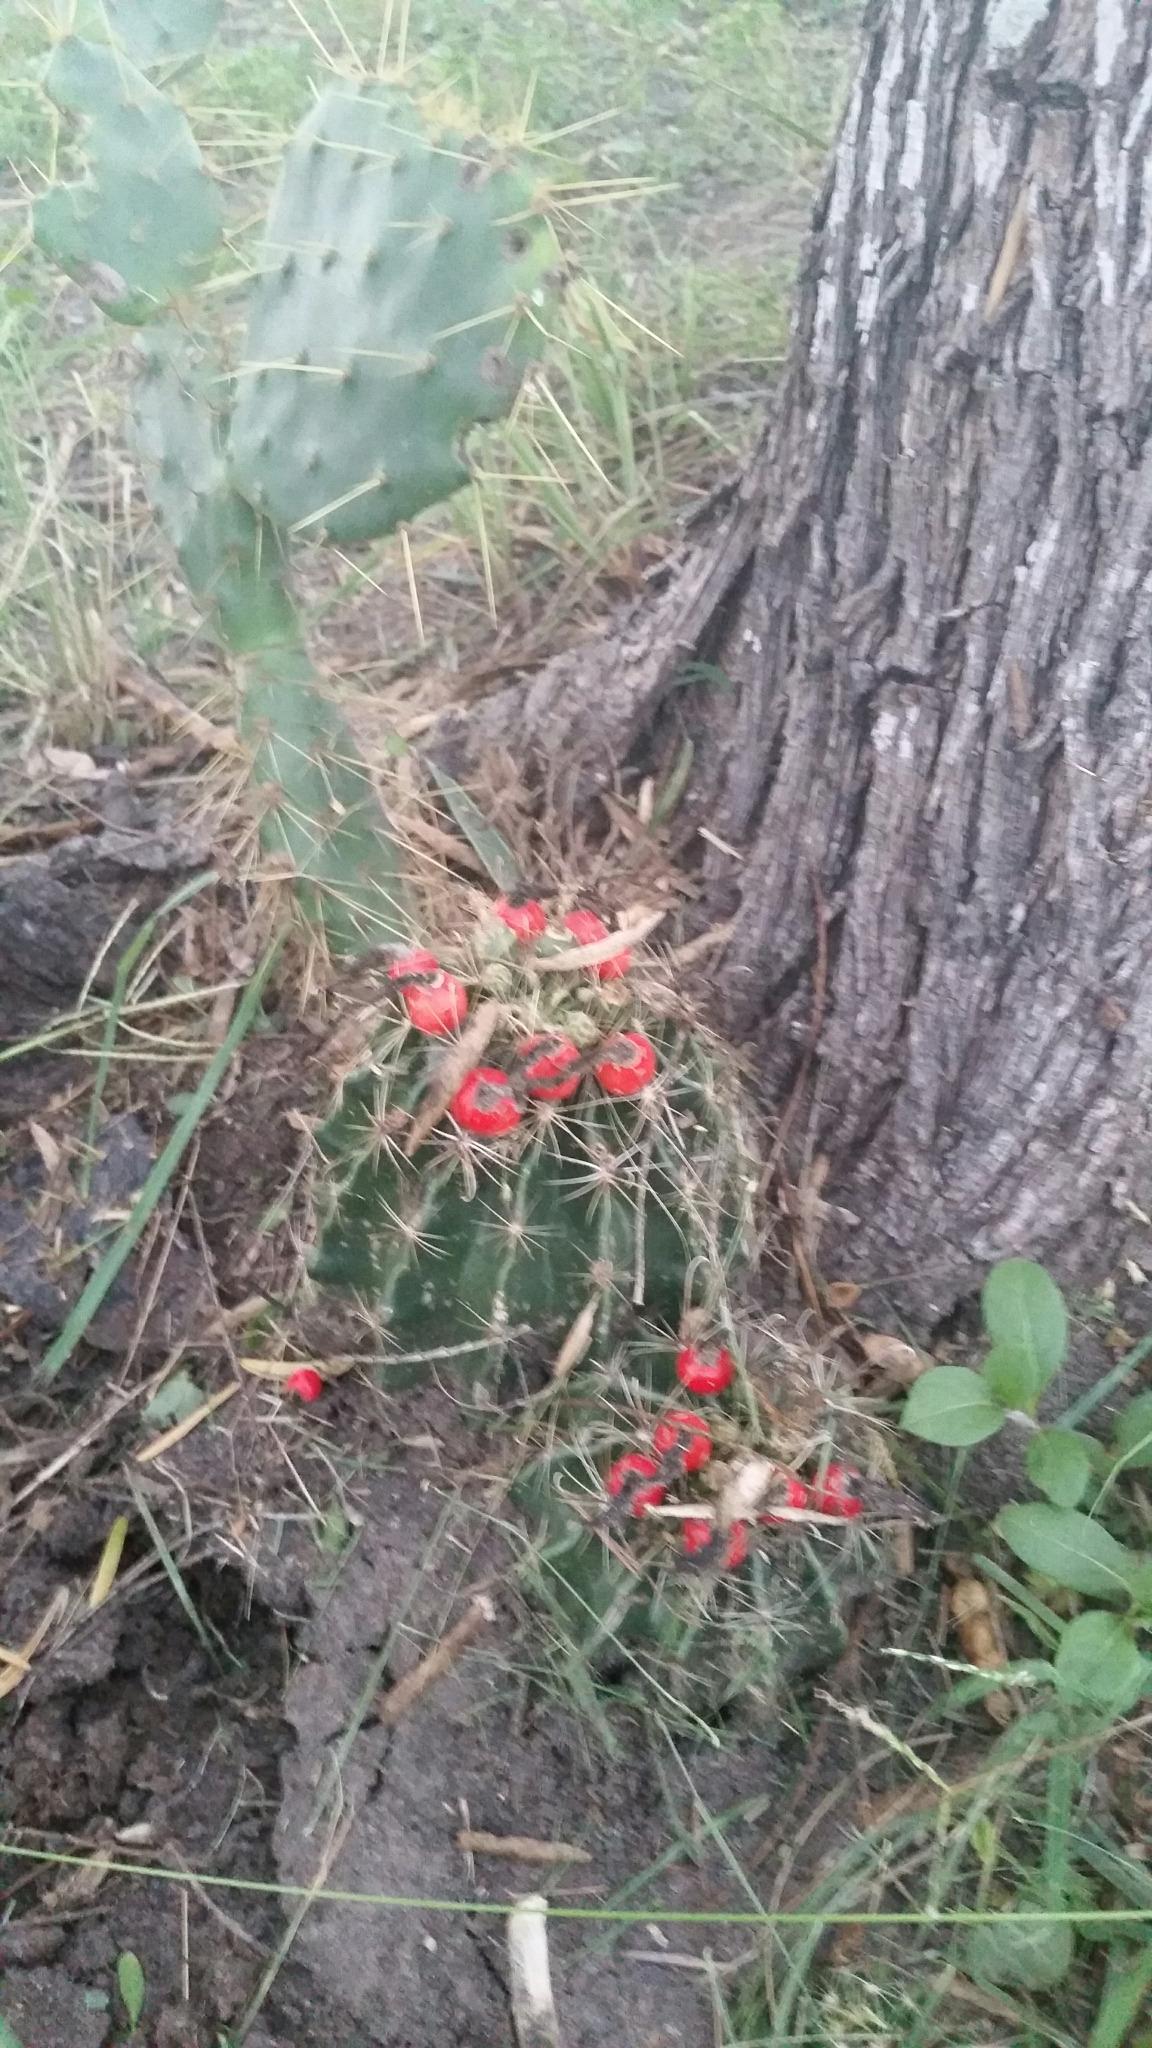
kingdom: Plantae
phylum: Tracheophyta
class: Magnoliopsida
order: Caryophyllales
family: Cactaceae
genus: Thelocactus
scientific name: Thelocactus setispinus
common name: Miniature barrel cactus
